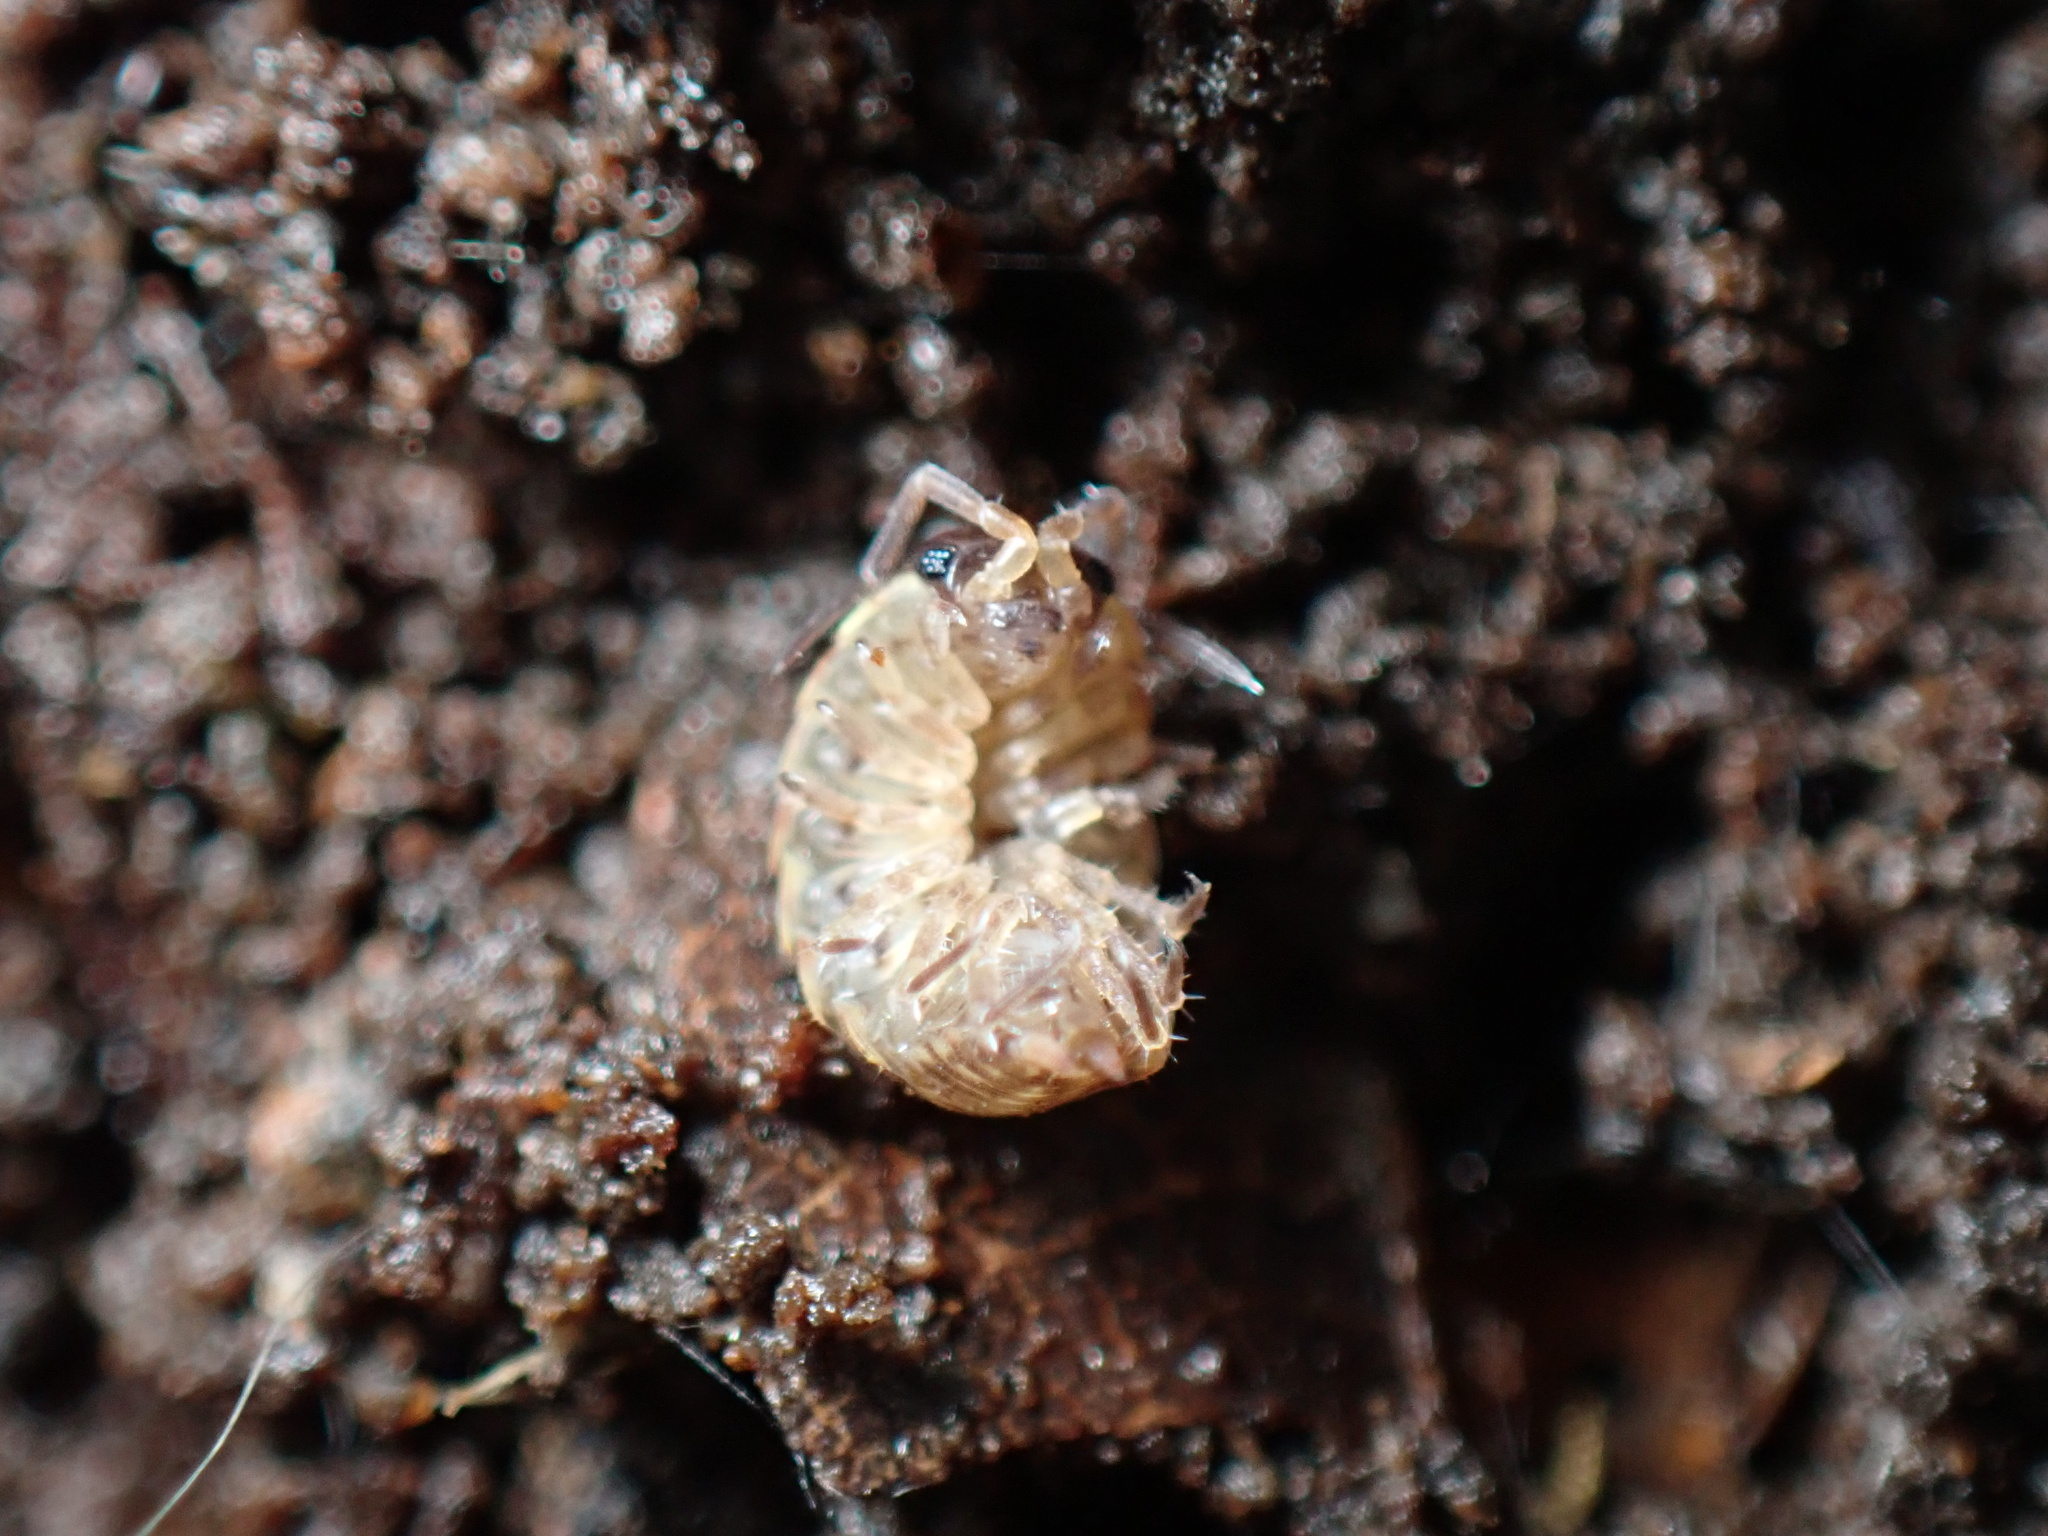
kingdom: Animalia
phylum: Arthropoda
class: Malacostraca
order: Isopoda
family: Philosciidae
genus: Philoscia
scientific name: Philoscia muscorum
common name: Common striped woodlouse
